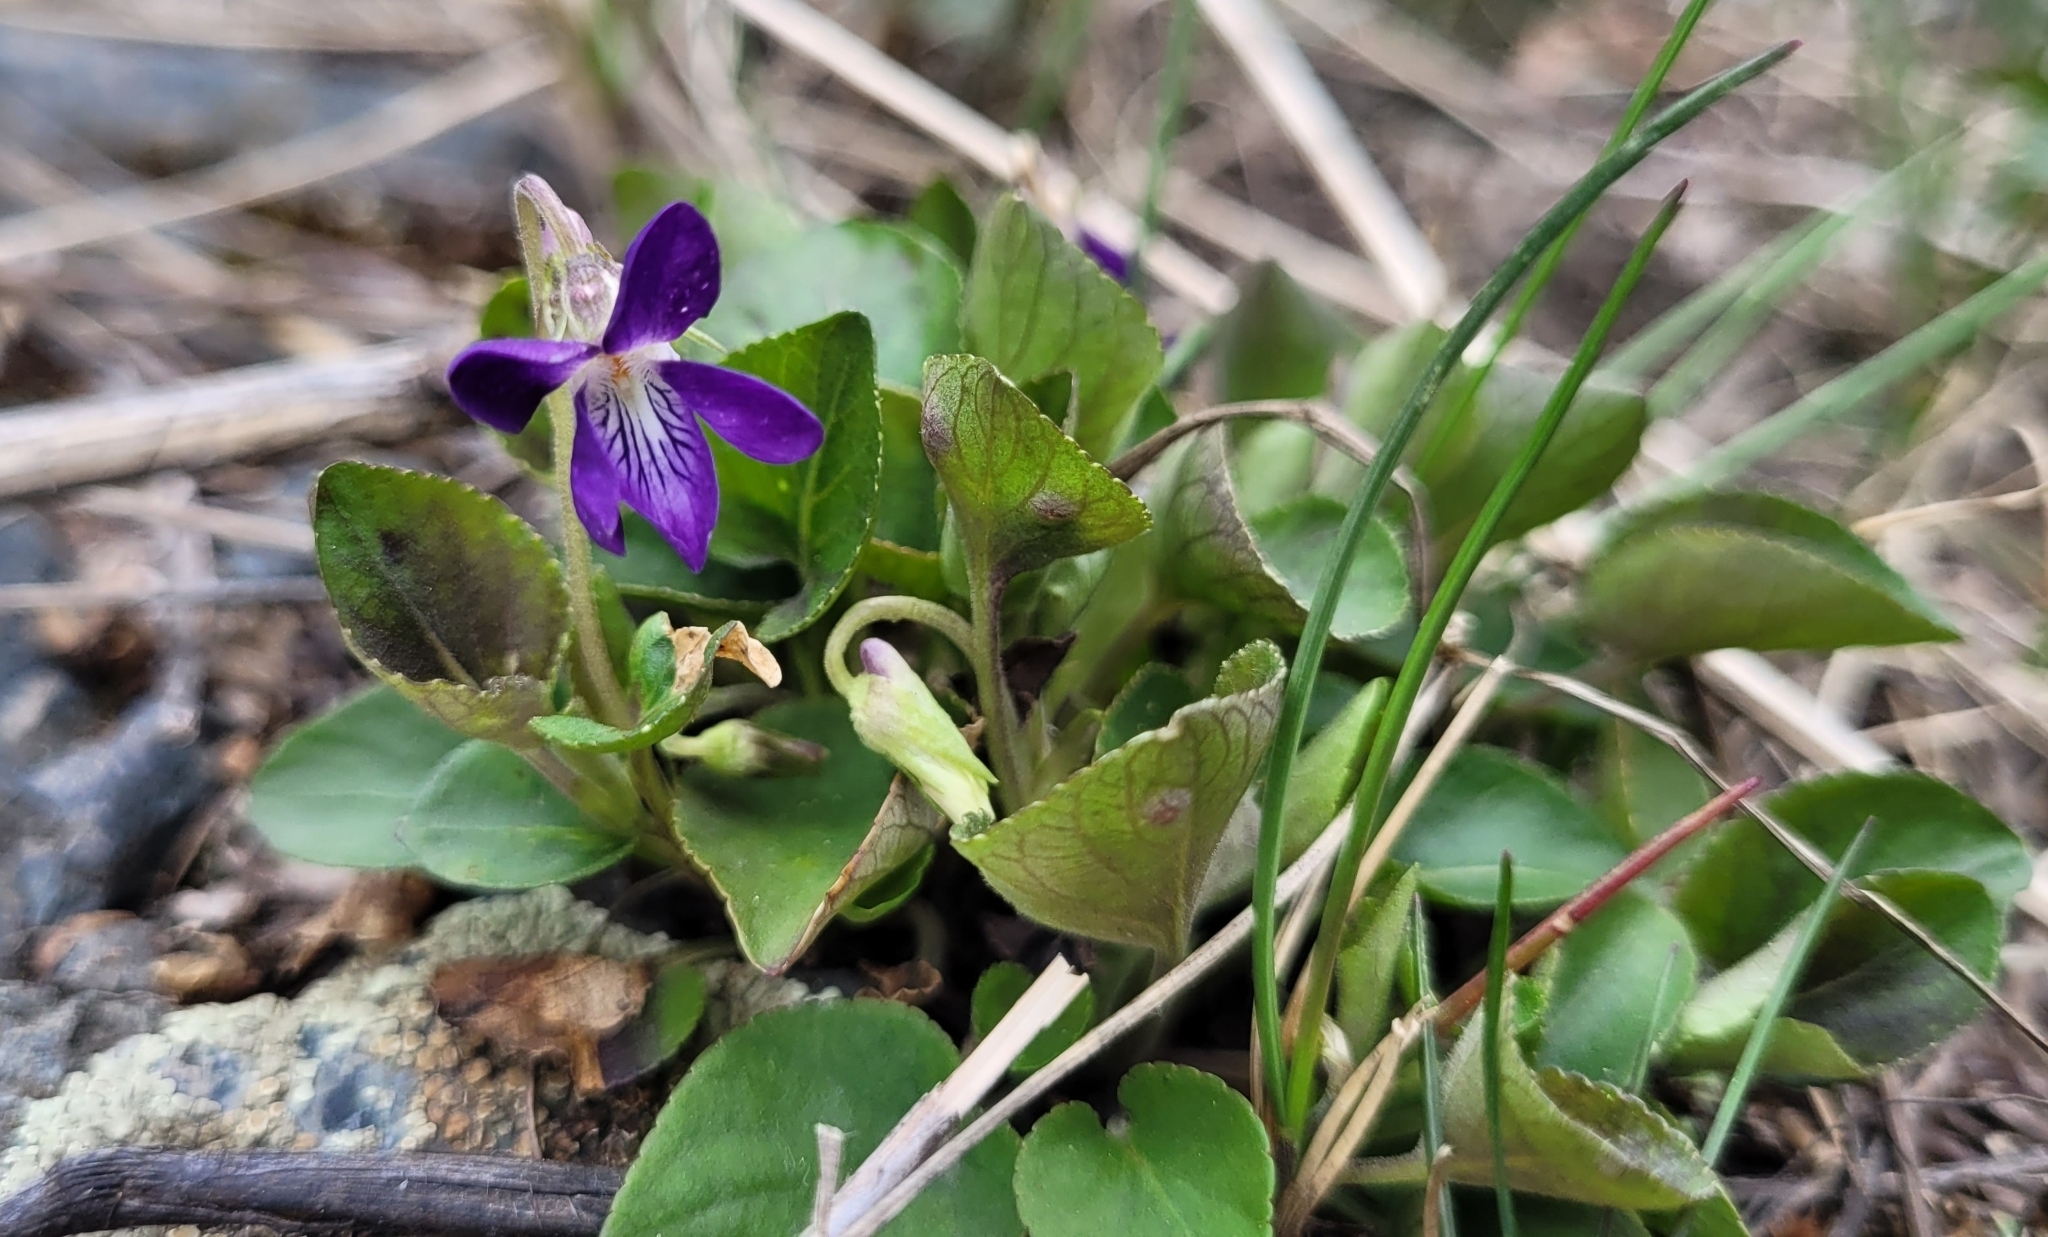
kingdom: Plantae
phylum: Tracheophyta
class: Magnoliopsida
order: Malpighiales
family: Violaceae
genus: Viola
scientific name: Viola rupestris
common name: Teesdale violet
